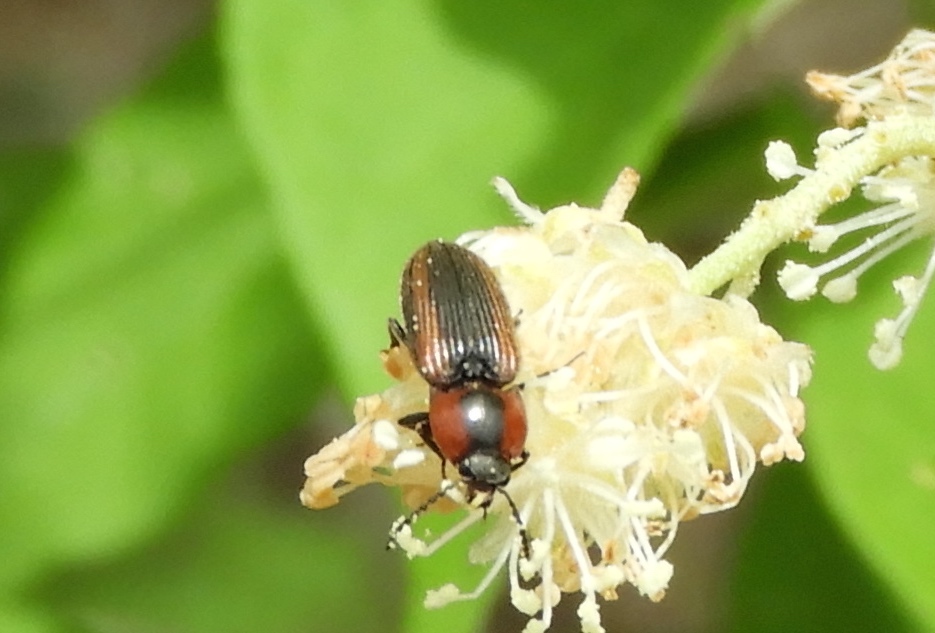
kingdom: Animalia
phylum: Arthropoda
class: Insecta
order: Coleoptera
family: Elateridae
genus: Cardiophorus
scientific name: Cardiophorus aptopoides
